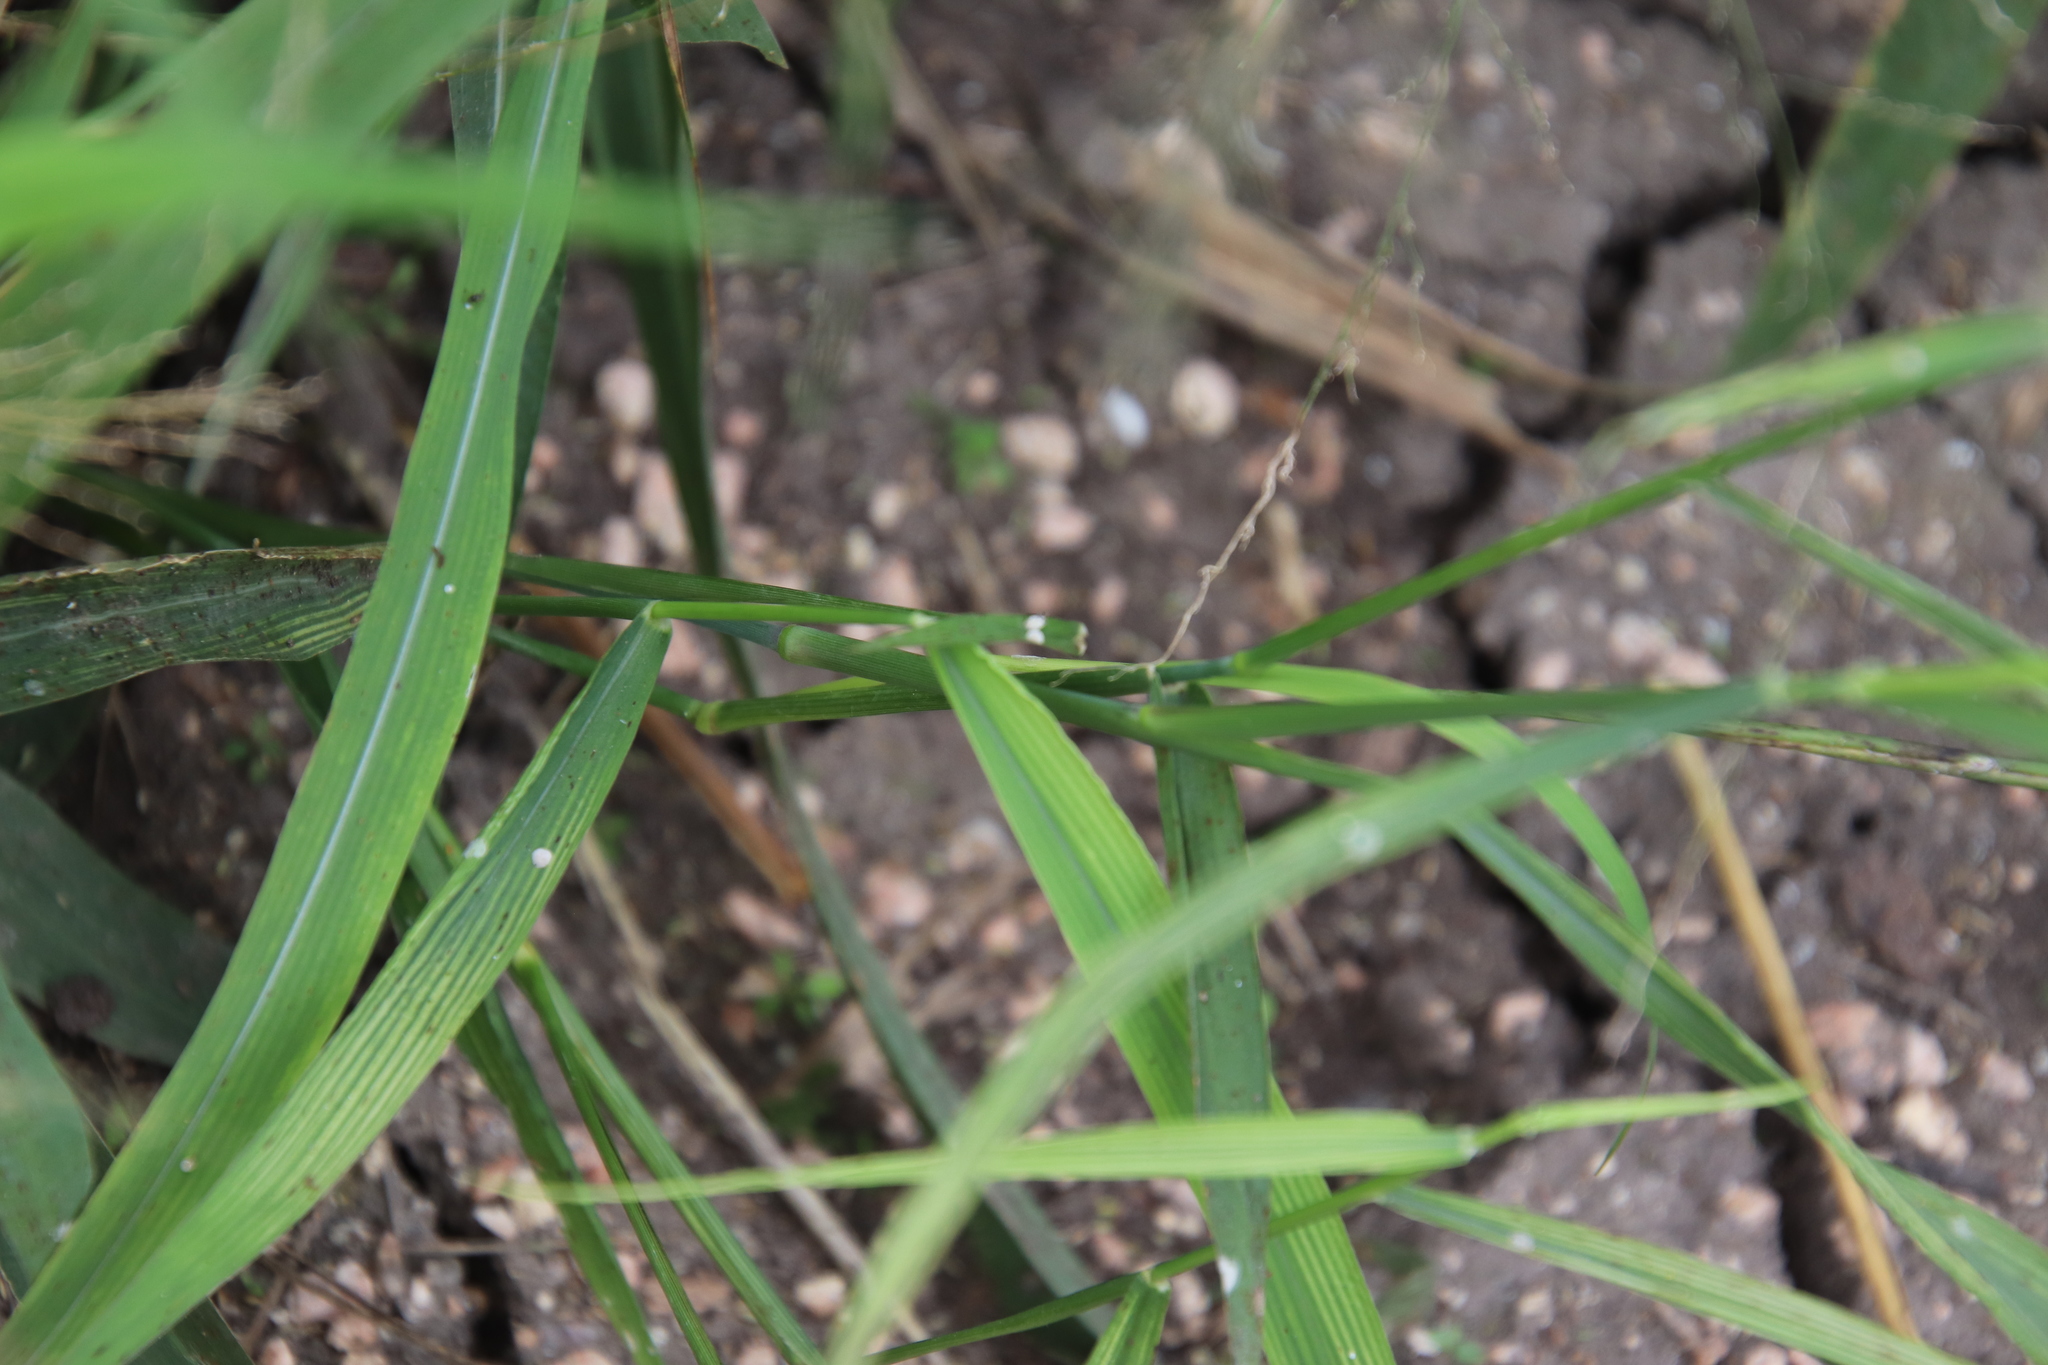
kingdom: Plantae
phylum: Tracheophyta
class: Liliopsida
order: Poales
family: Poaceae
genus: Megathyrsus
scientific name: Megathyrsus maximus
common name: Guineagrass
